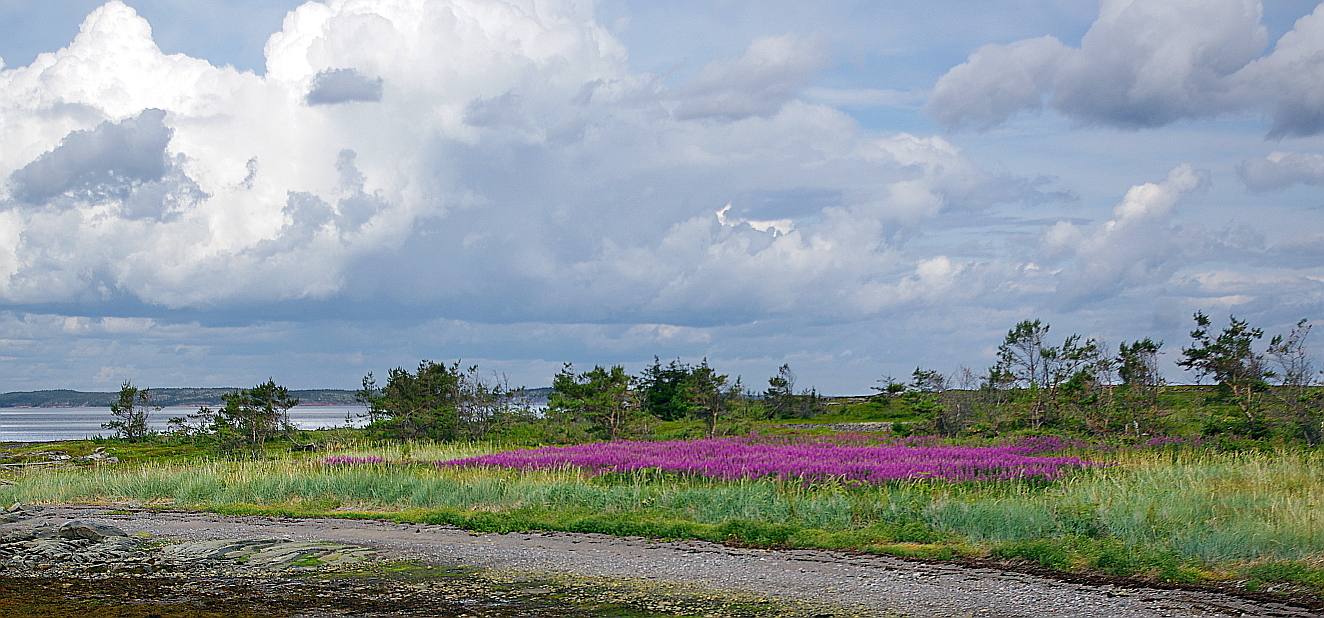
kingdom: Plantae
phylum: Tracheophyta
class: Magnoliopsida
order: Myrtales
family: Onagraceae
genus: Chamaenerion
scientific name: Chamaenerion angustifolium
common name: Fireweed
